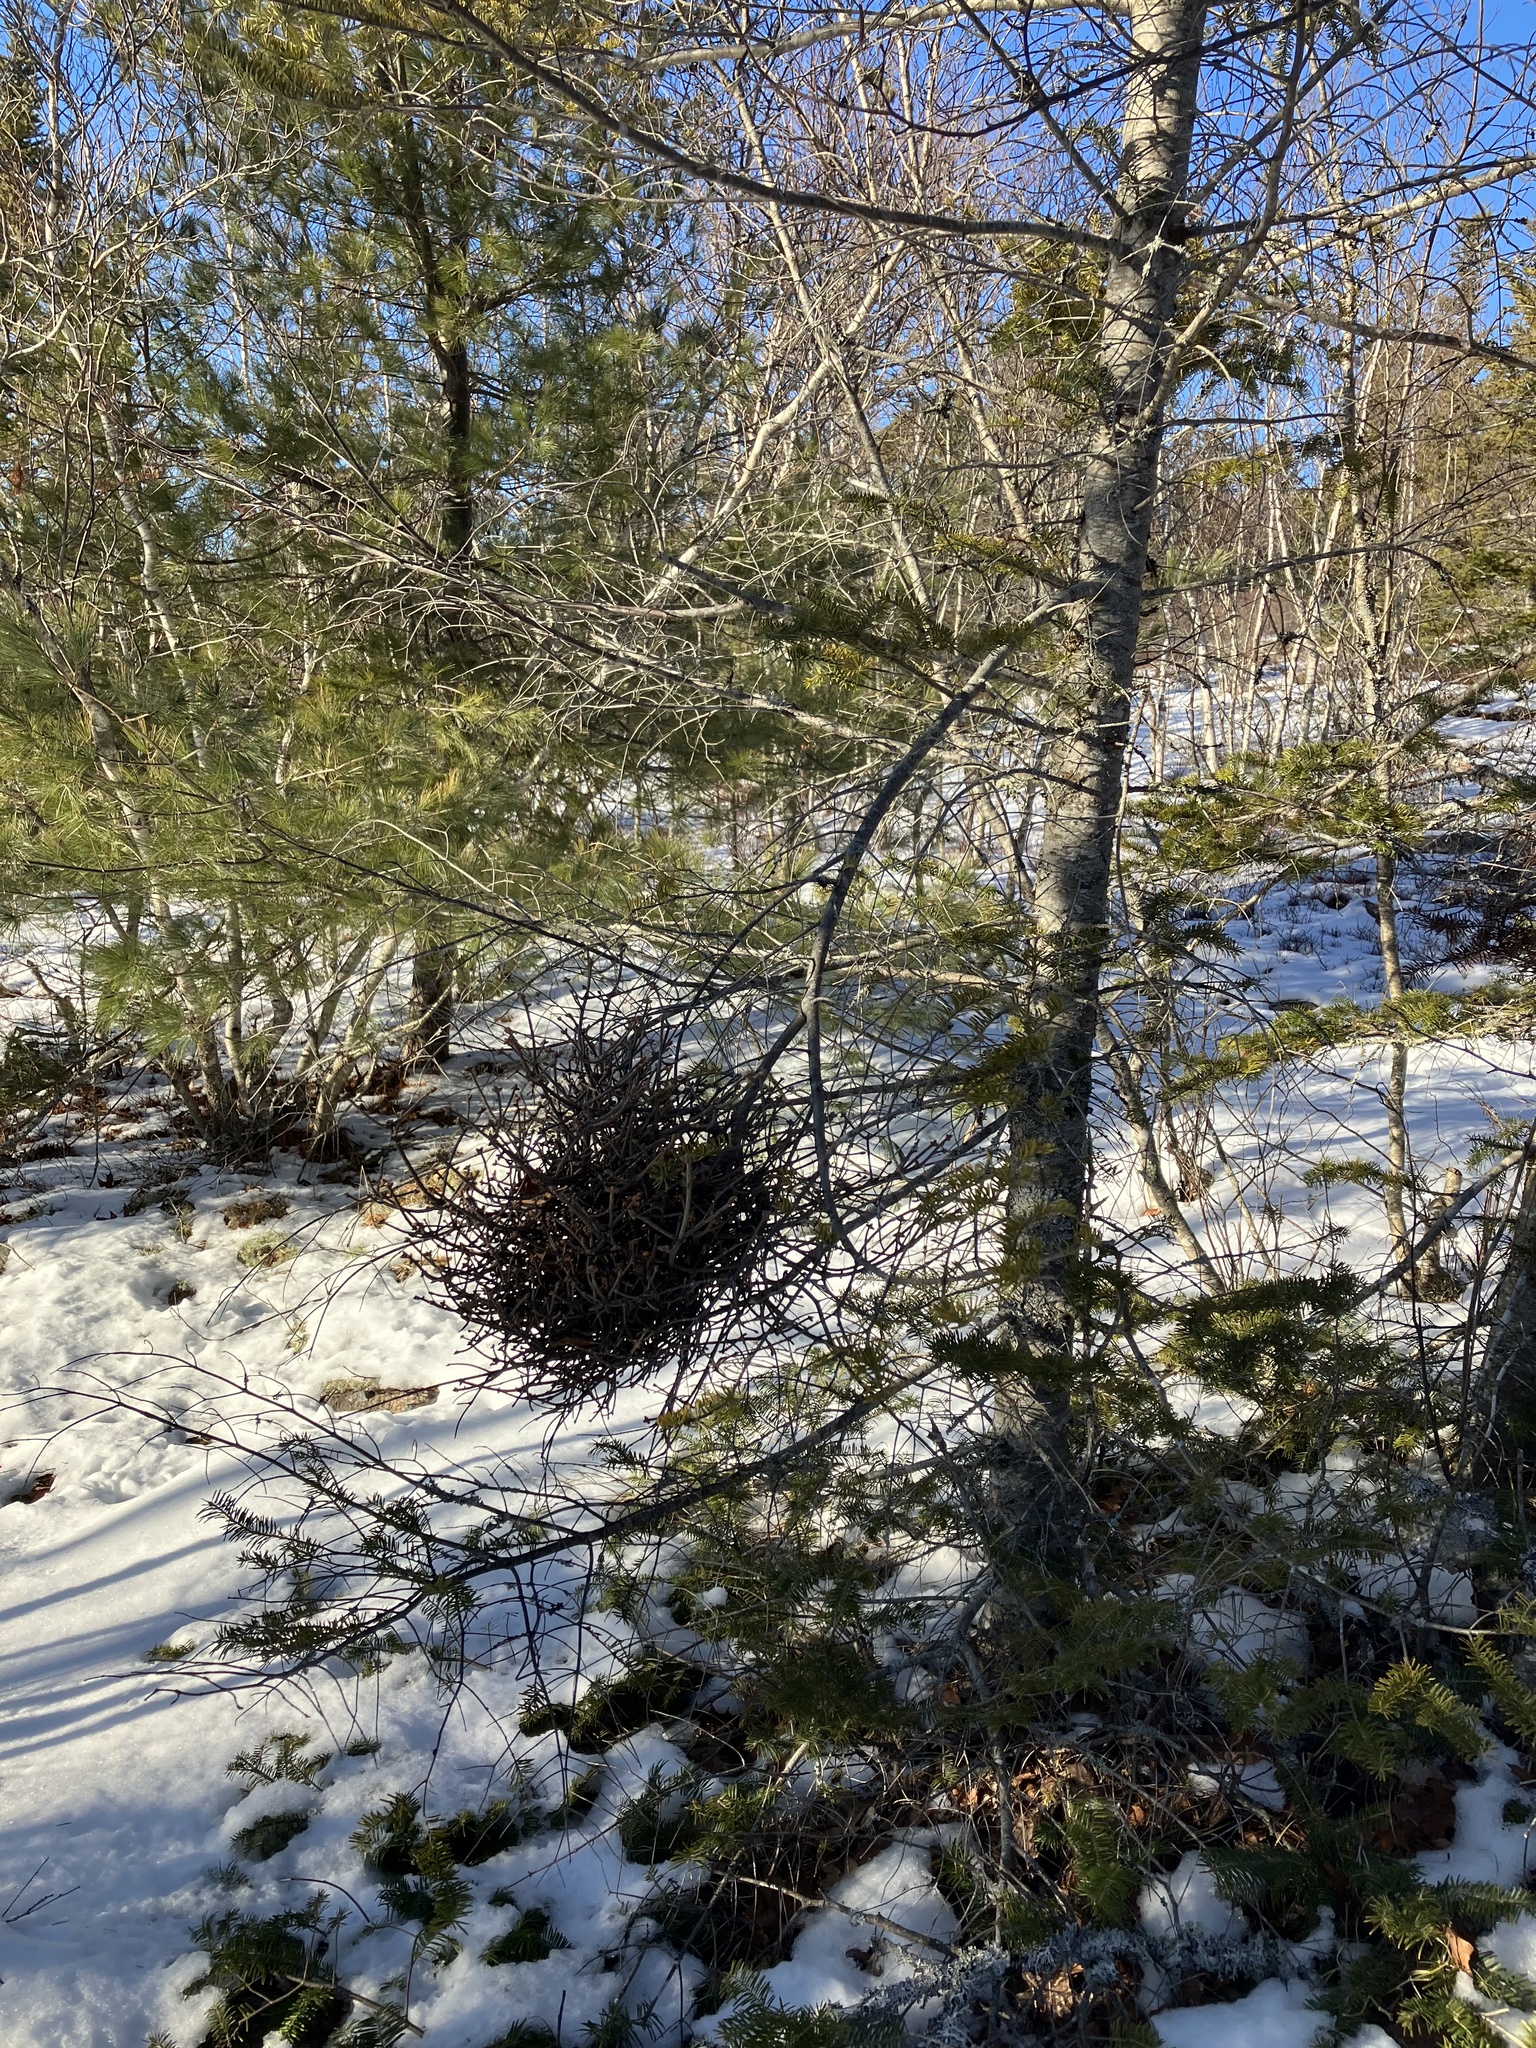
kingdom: Fungi
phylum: Basidiomycota
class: Pucciniomycetes
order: Pucciniales
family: Pucciniastraceae
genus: Melampsorella
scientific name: Melampsorella elatina
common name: Fir broom rust
